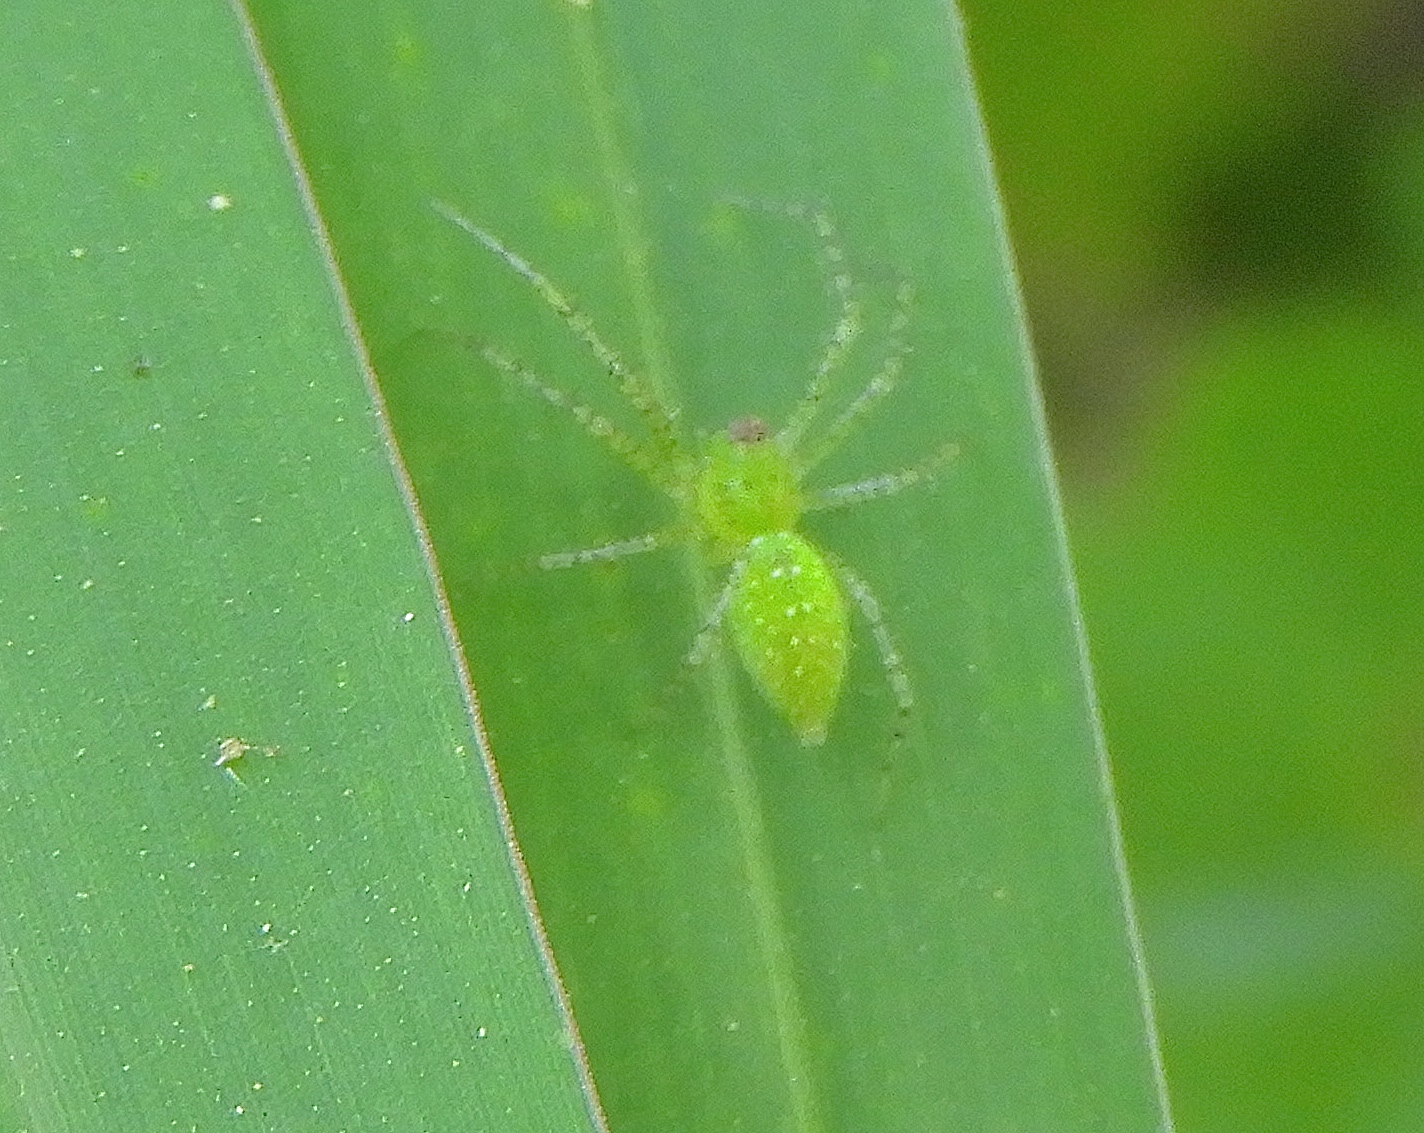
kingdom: Animalia
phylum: Arthropoda
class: Arachnida
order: Araneae
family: Oxyopidae
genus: Peucetia
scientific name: Peucetia
